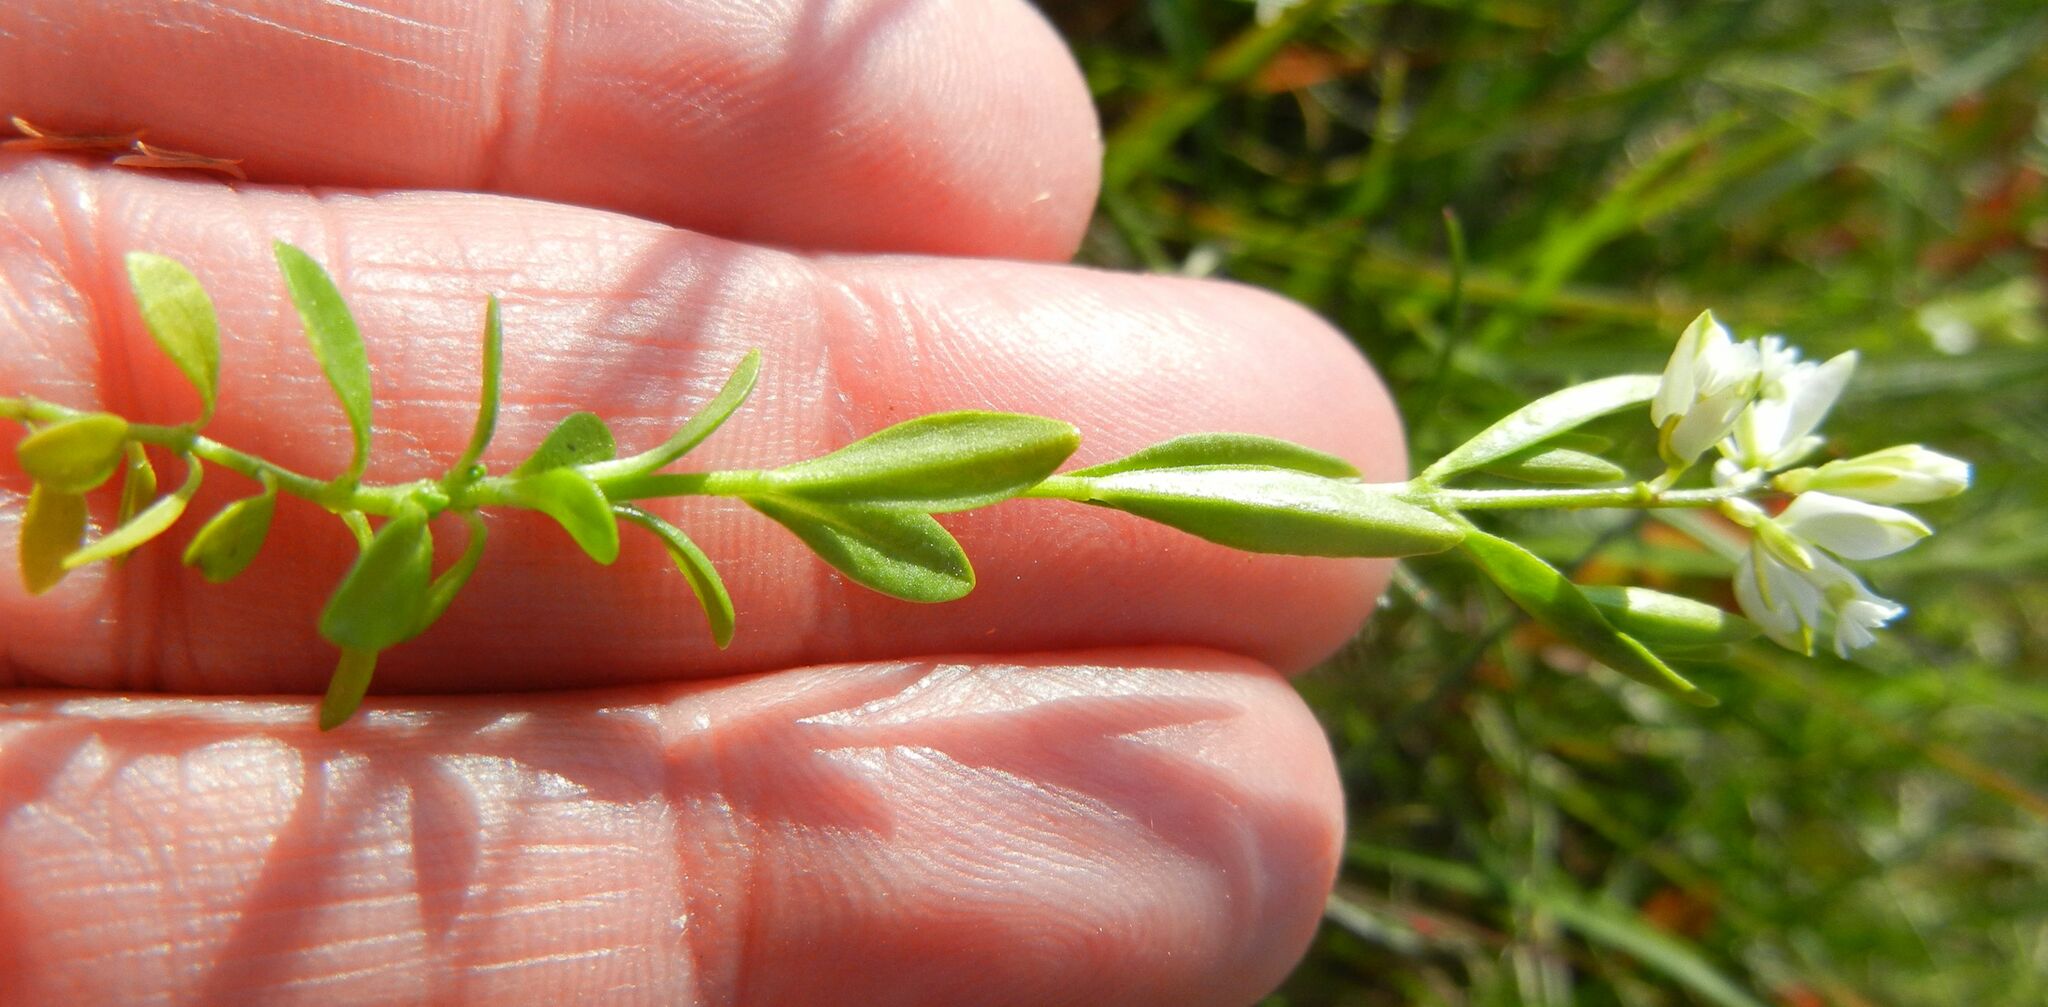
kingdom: Plantae
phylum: Tracheophyta
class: Magnoliopsida
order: Fabales
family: Polygalaceae
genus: Polygala
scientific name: Polygala serpyllifolia
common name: Heath milkwort
